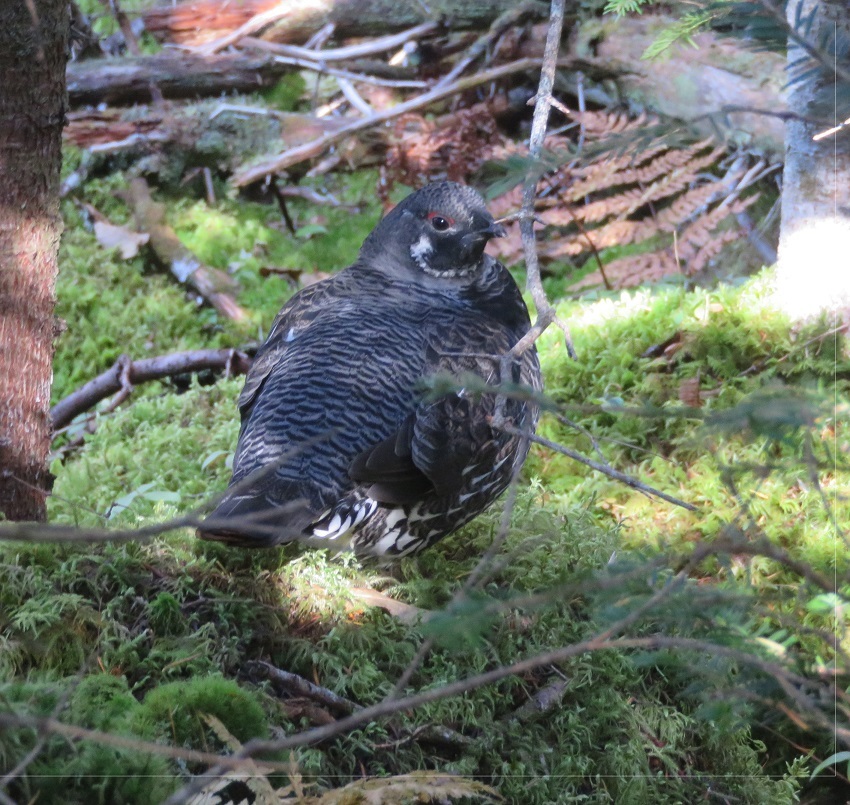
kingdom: Animalia
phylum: Chordata
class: Aves
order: Galliformes
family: Phasianidae
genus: Canachites
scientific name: Canachites canadensis
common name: Spruce grouse
